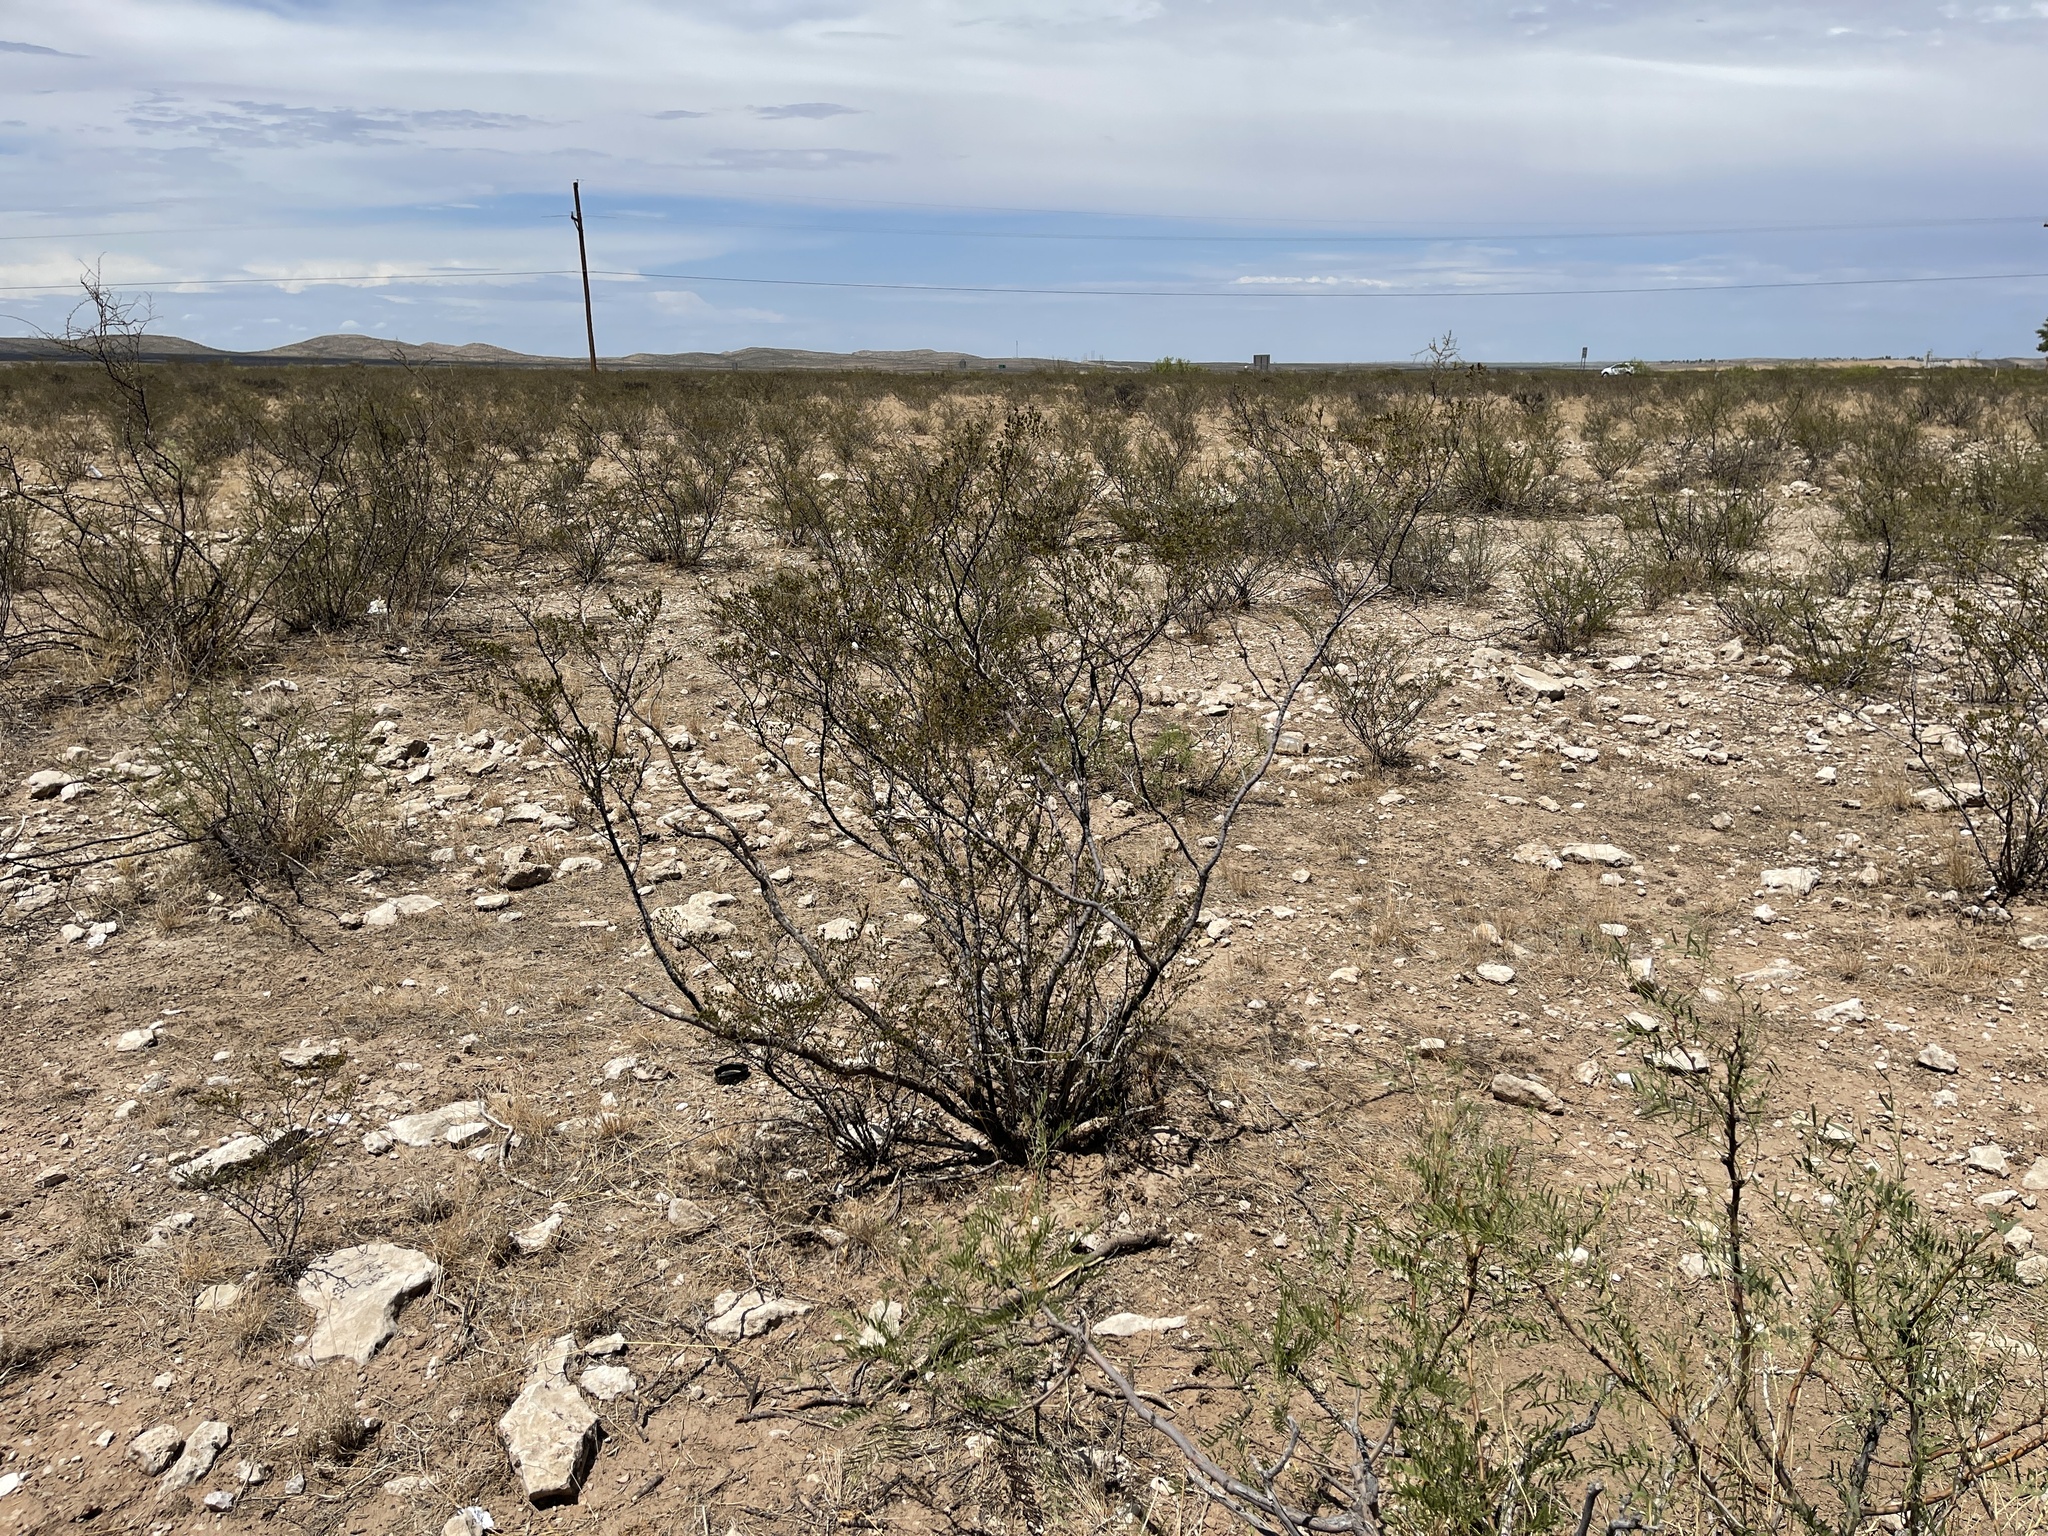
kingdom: Plantae
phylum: Tracheophyta
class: Magnoliopsida
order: Zygophyllales
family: Zygophyllaceae
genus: Larrea
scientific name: Larrea tridentata
